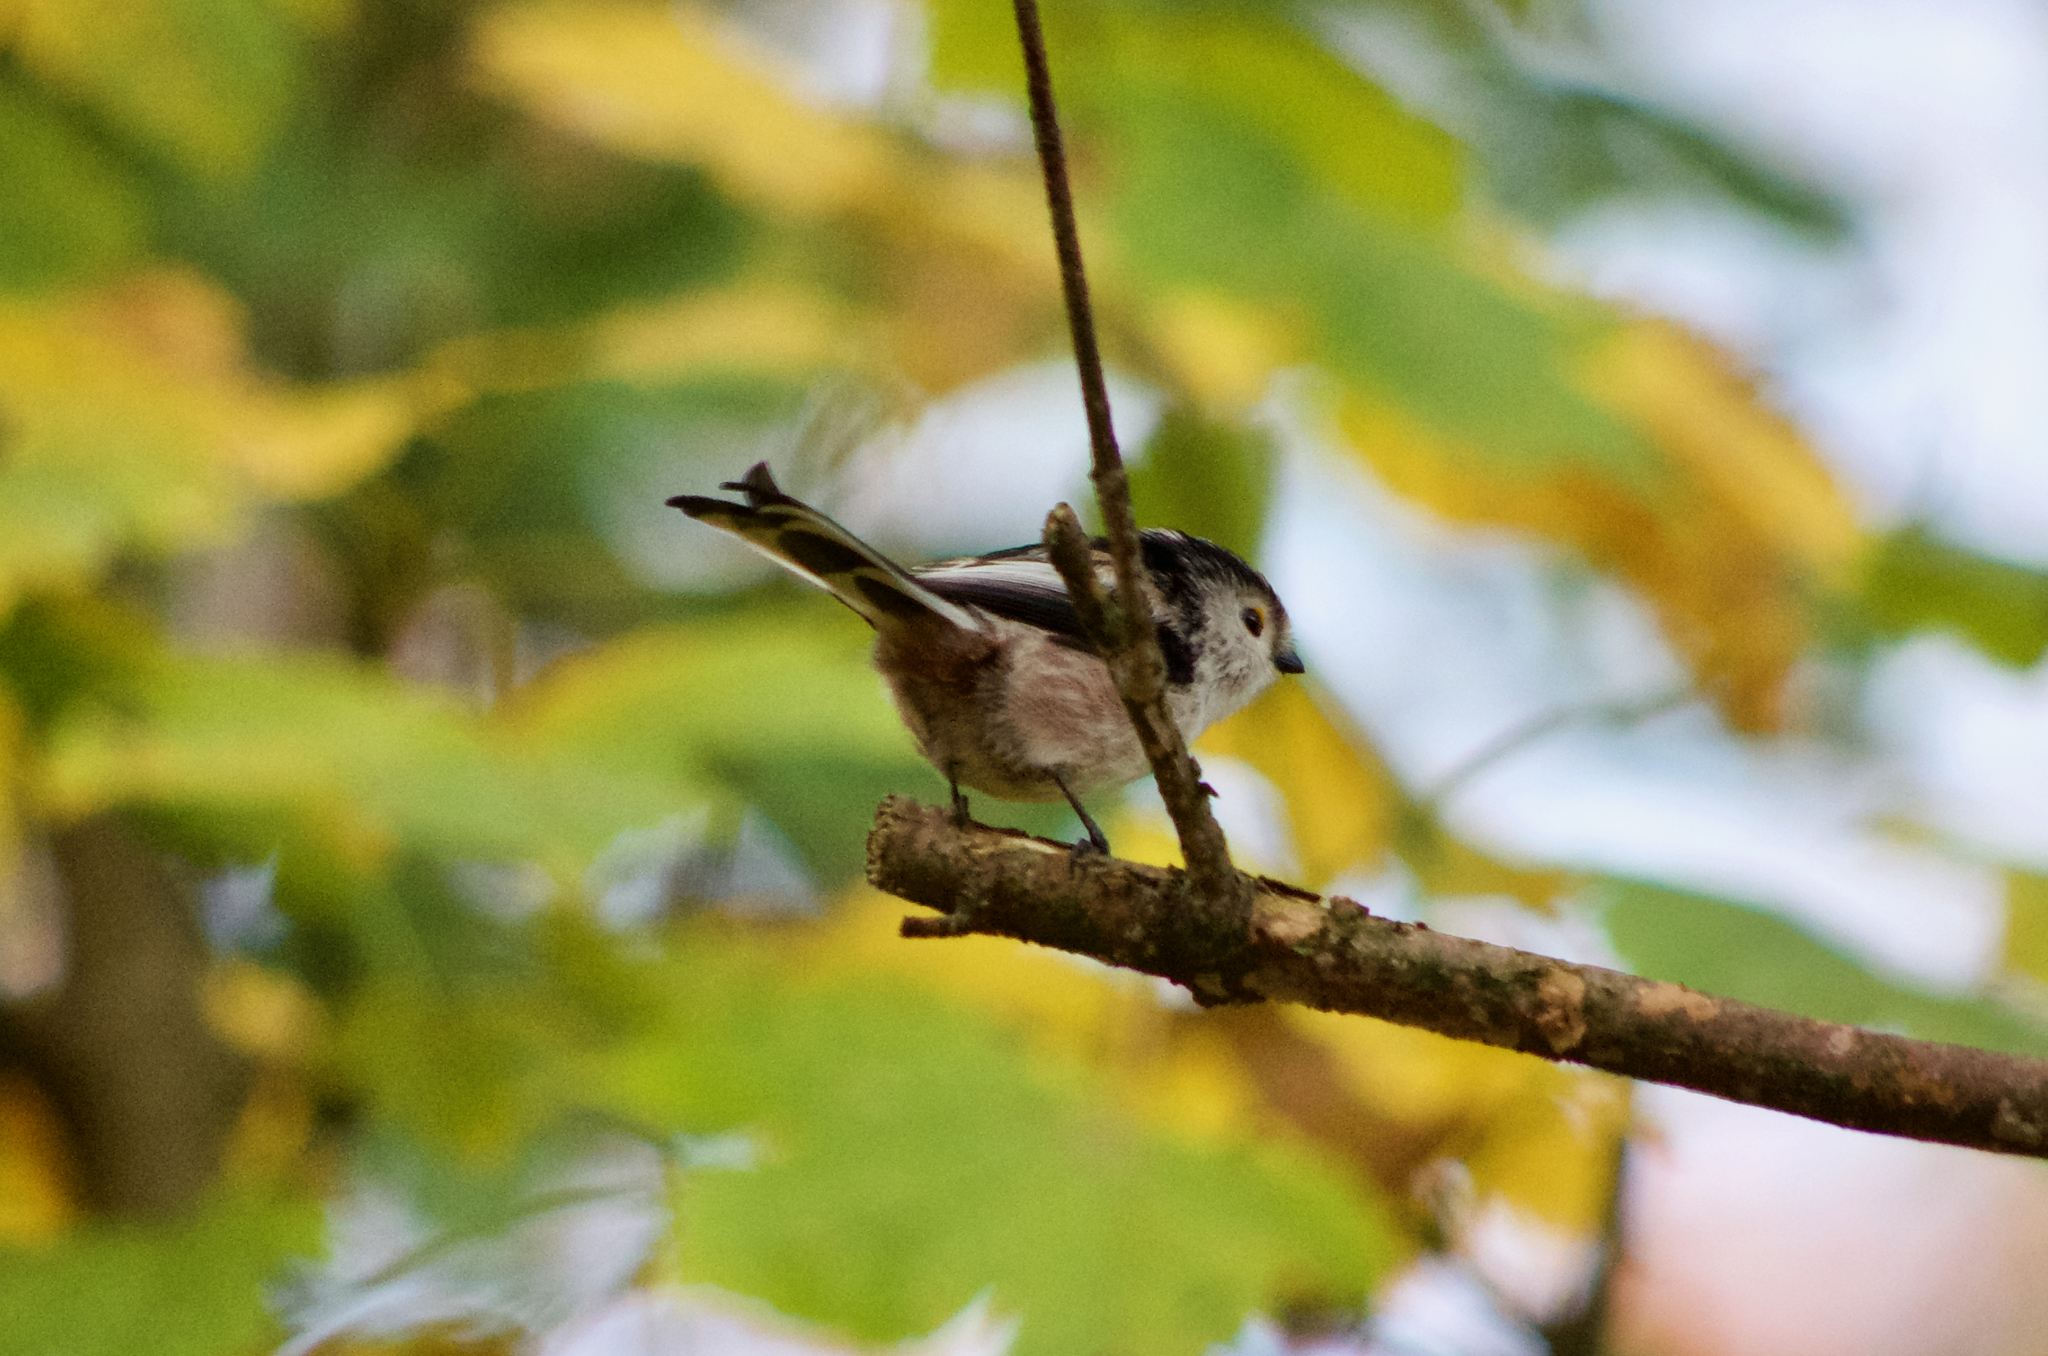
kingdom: Animalia
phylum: Chordata
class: Aves
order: Passeriformes
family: Aegithalidae
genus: Aegithalos
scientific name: Aegithalos caudatus
